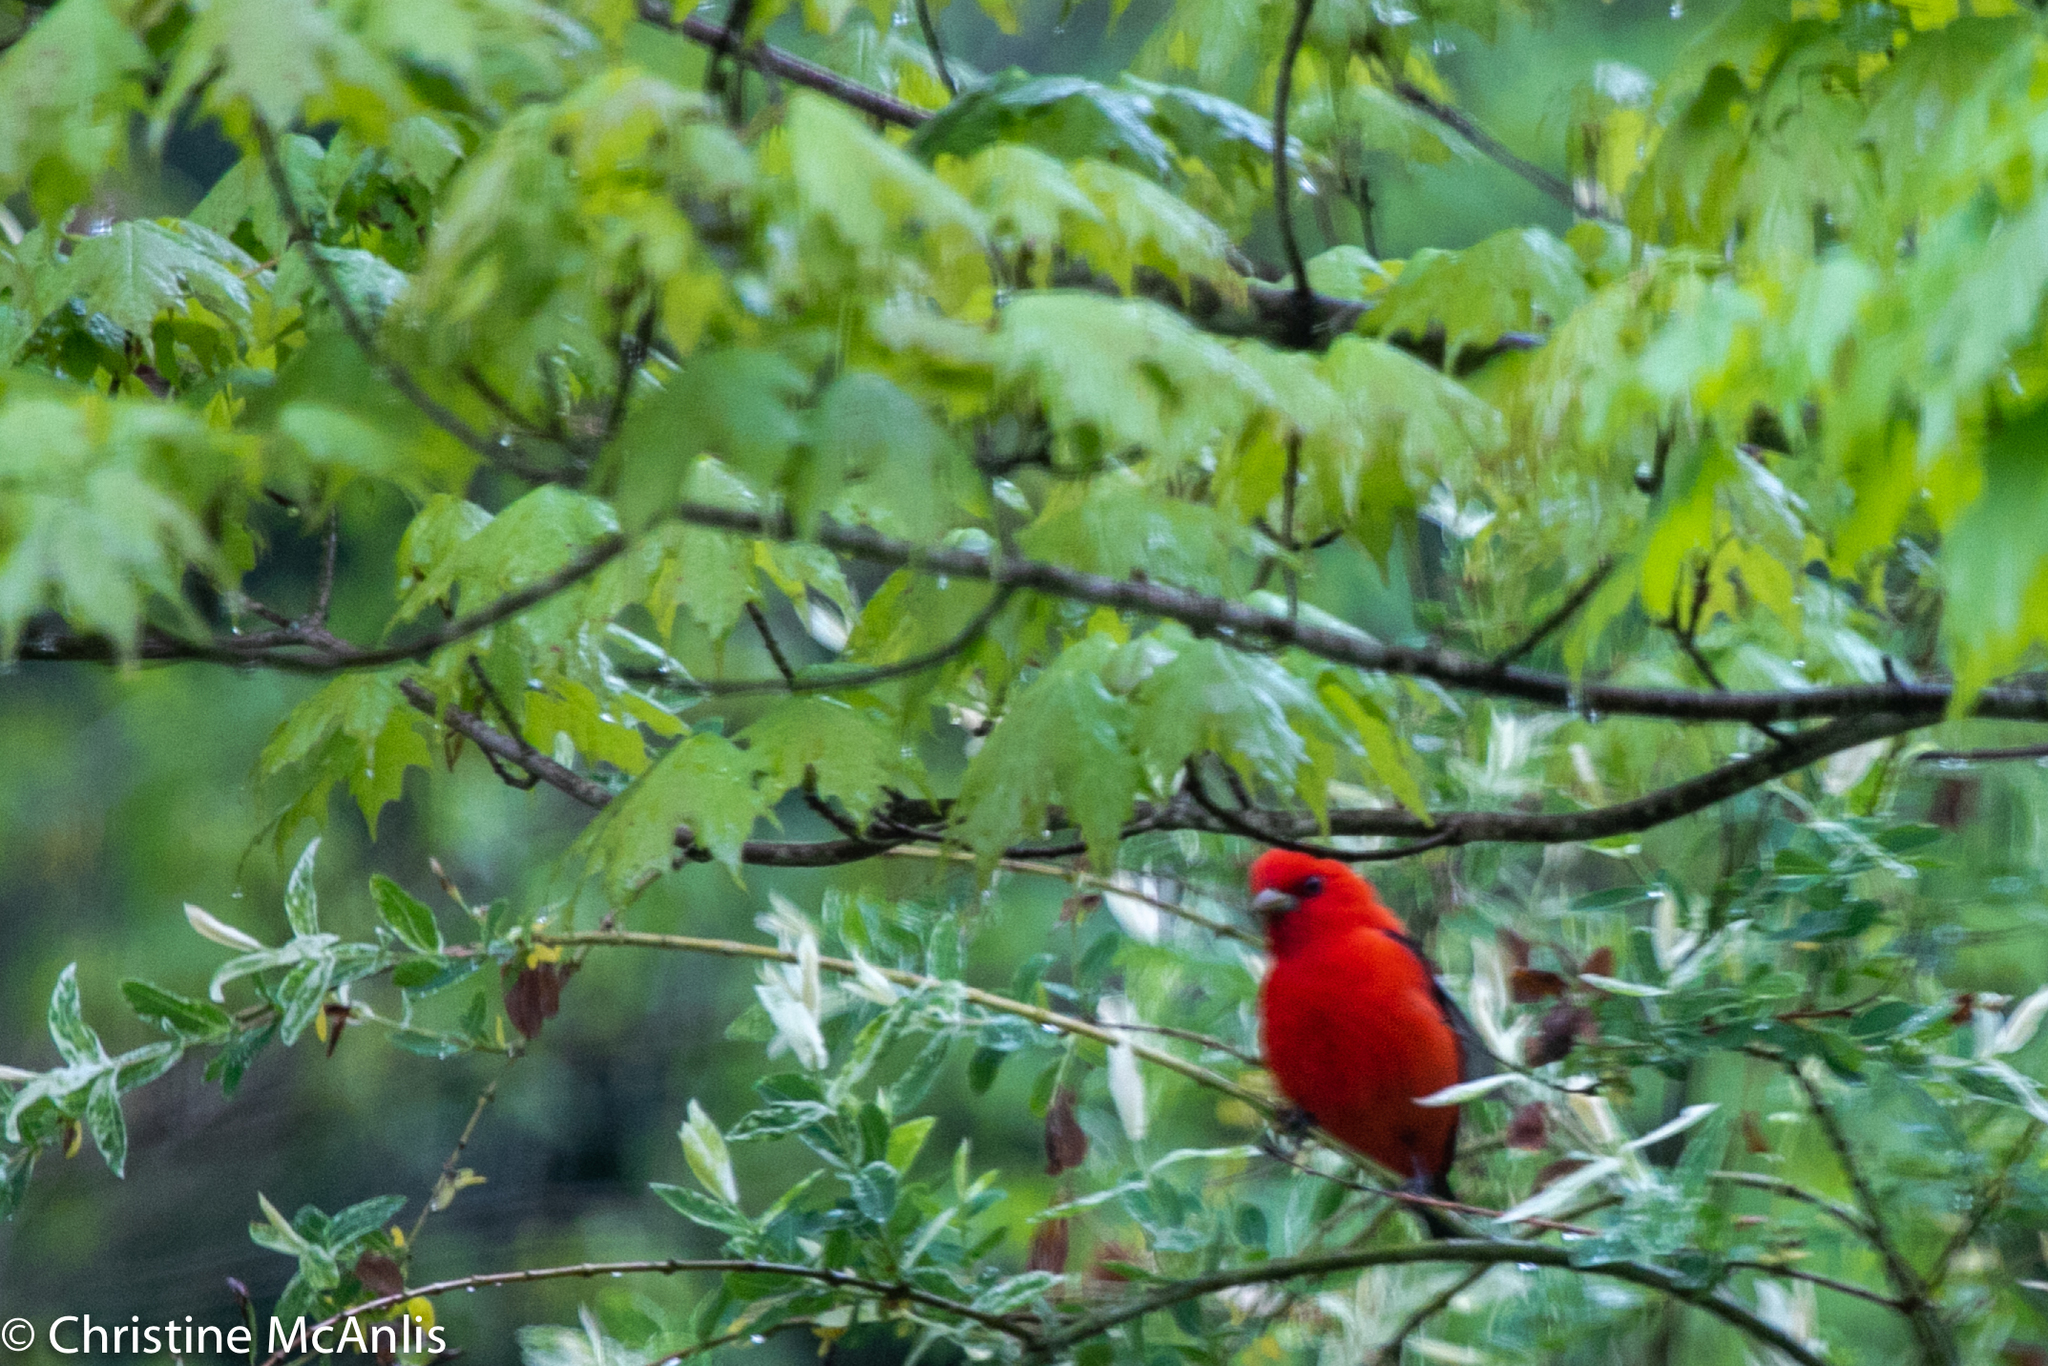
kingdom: Animalia
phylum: Chordata
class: Aves
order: Passeriformes
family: Cardinalidae
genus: Piranga
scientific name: Piranga olivacea
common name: Scarlet tanager
